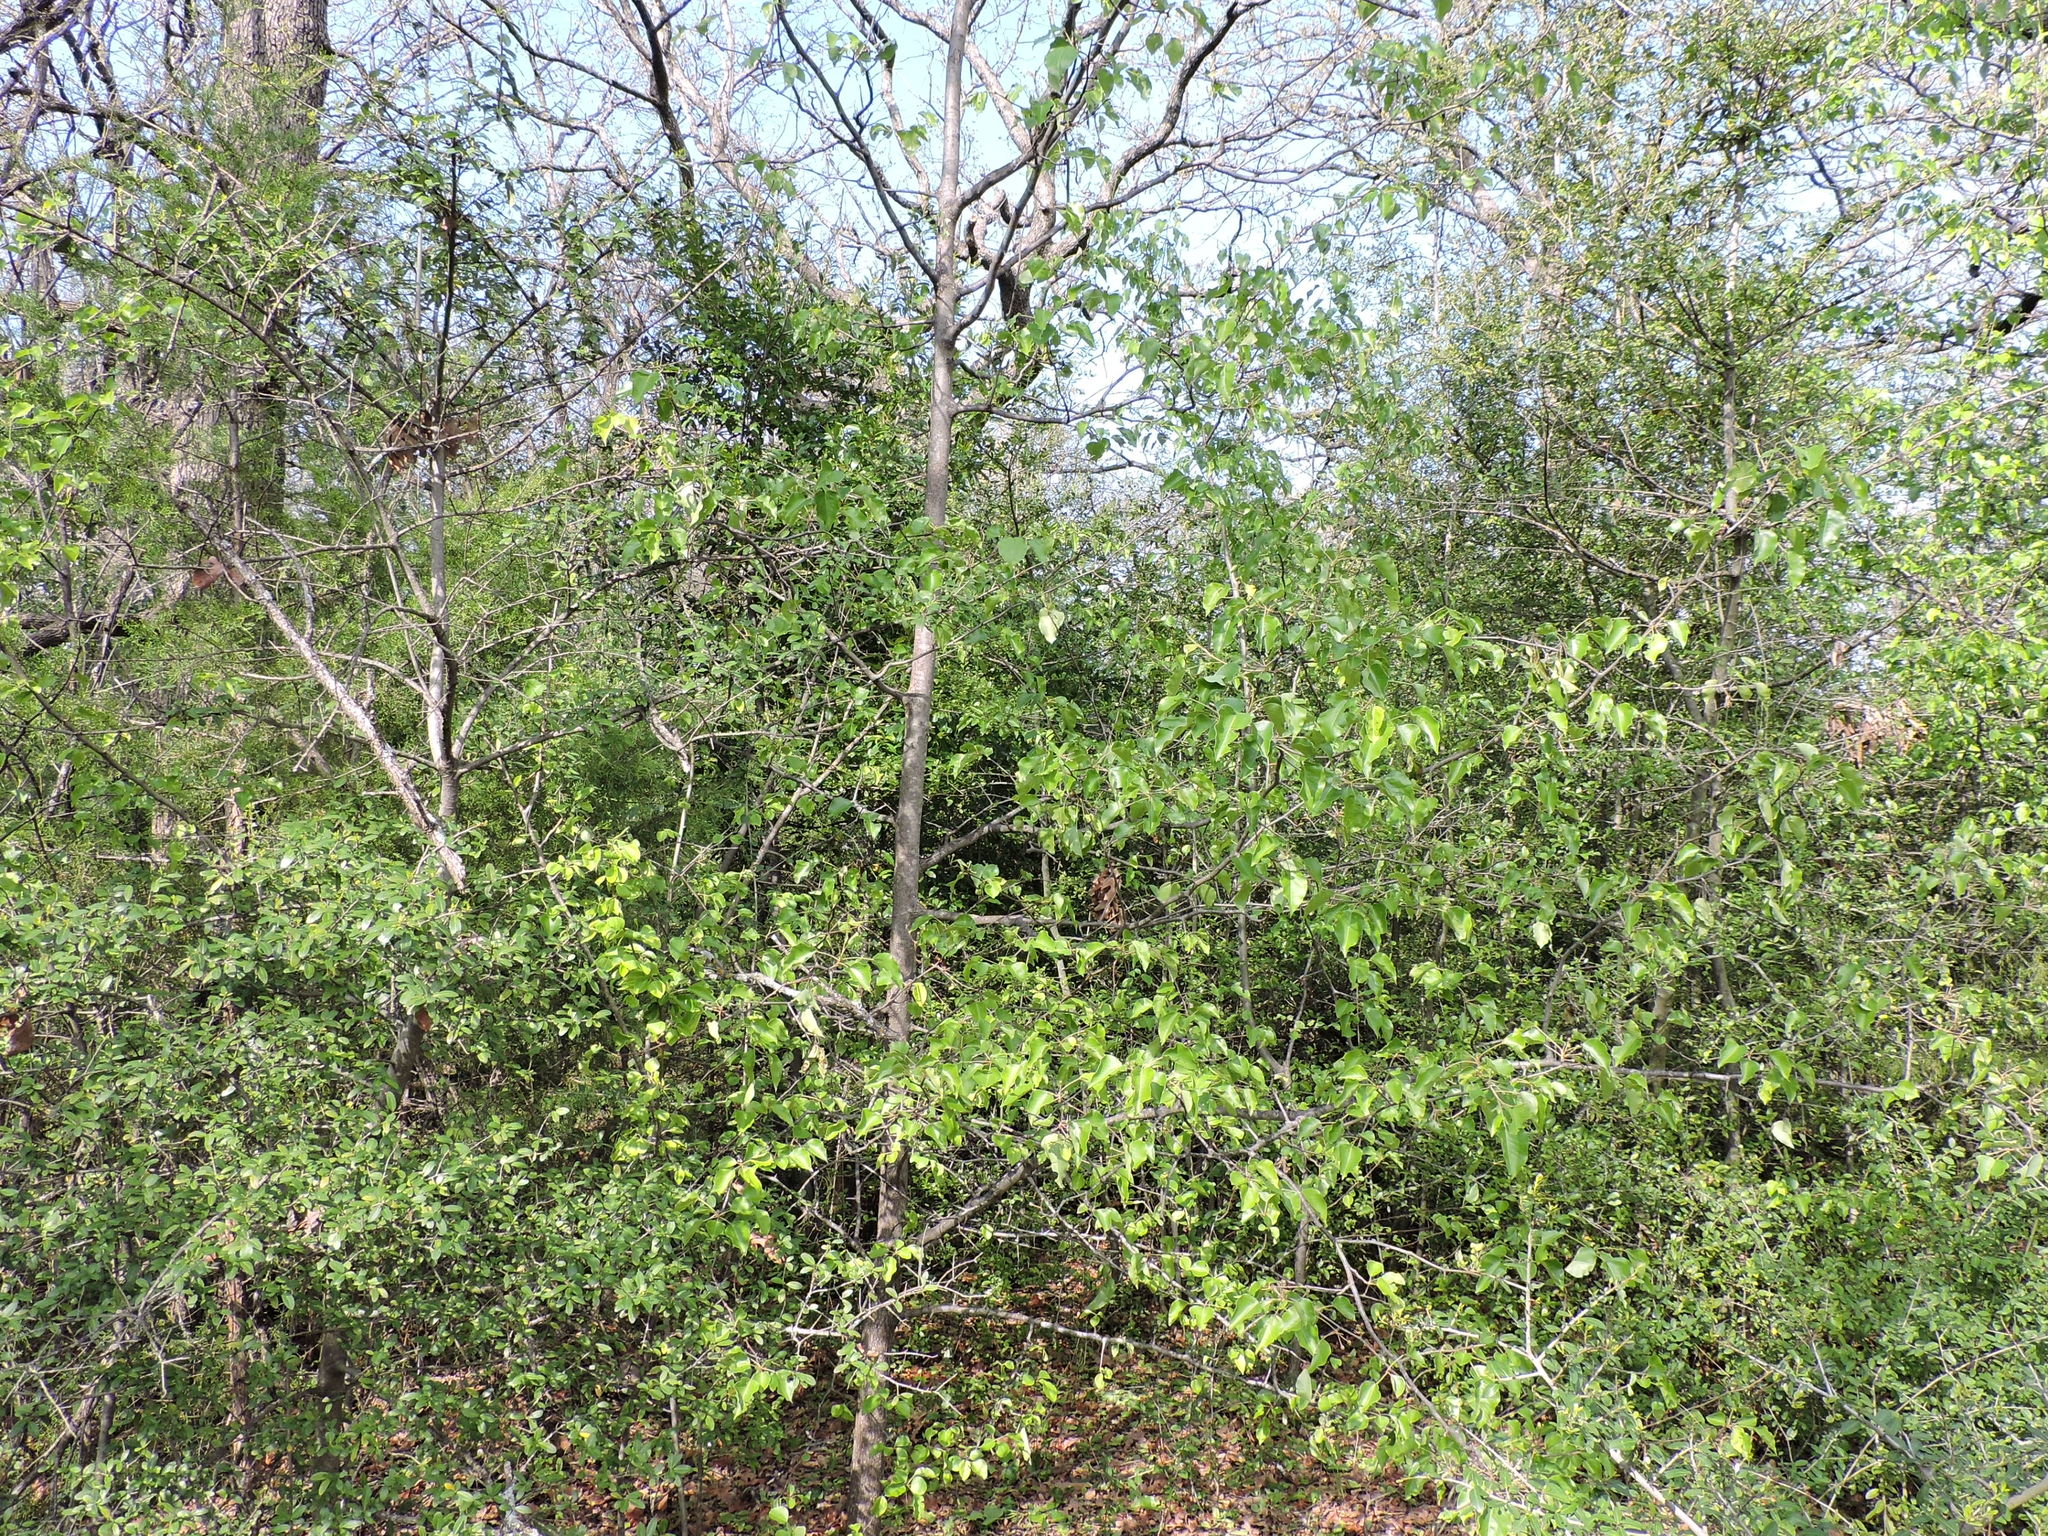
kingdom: Plantae
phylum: Tracheophyta
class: Magnoliopsida
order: Rosales
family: Rosaceae
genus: Pyrus
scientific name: Pyrus calleryana
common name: Callery pear
